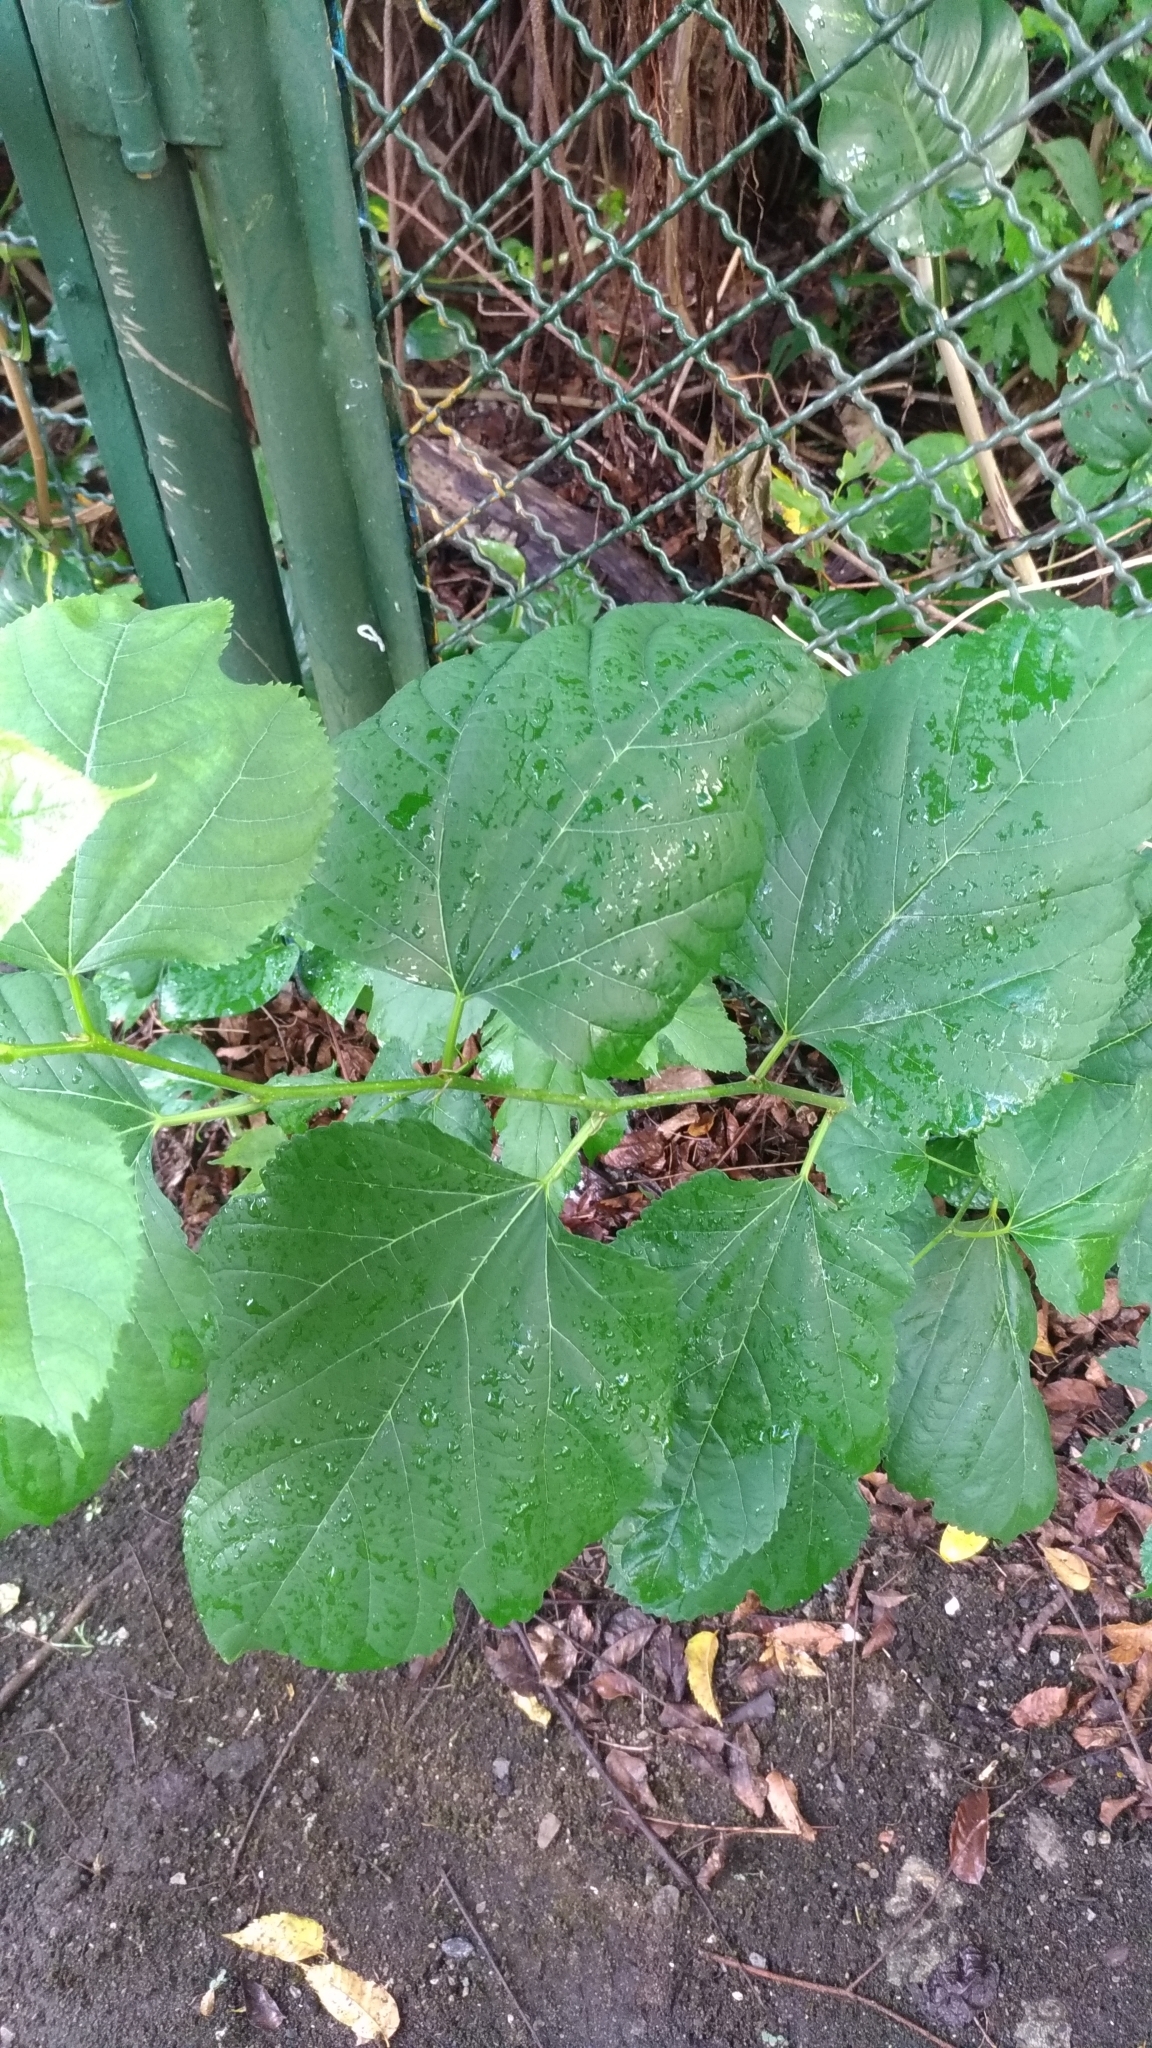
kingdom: Plantae
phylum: Tracheophyta
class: Magnoliopsida
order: Rosales
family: Moraceae
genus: Morus
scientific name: Morus indica
